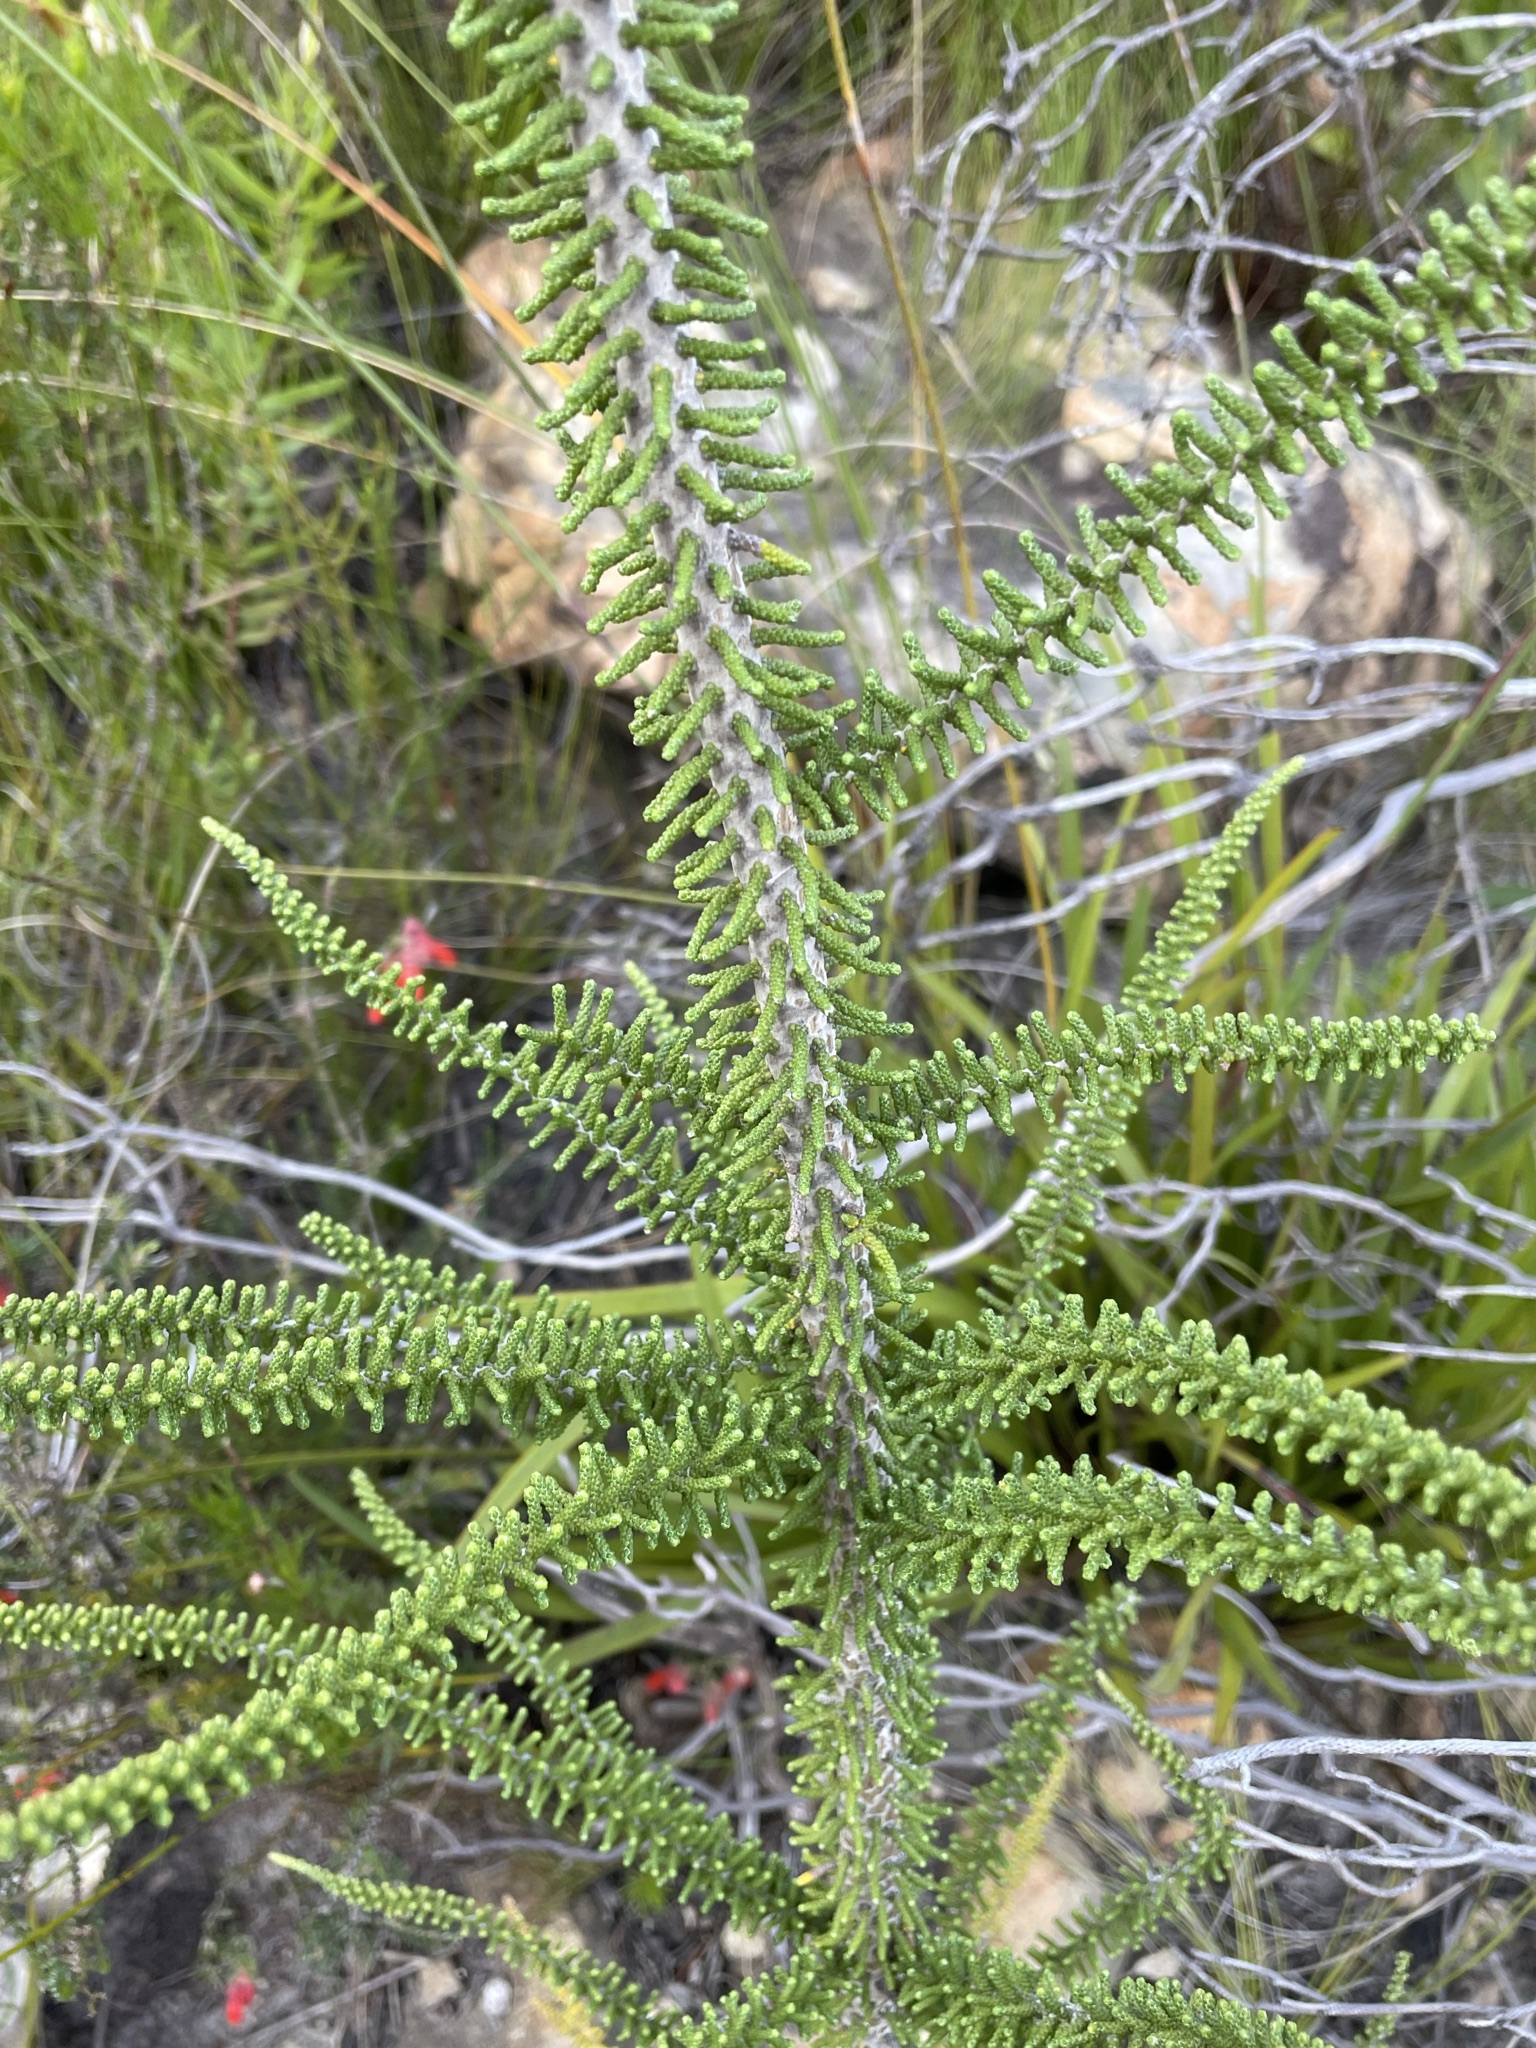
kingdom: Plantae
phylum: Tracheophyta
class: Magnoliopsida
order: Asterales
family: Asteraceae
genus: Phaenocoma
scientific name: Phaenocoma prolifera
